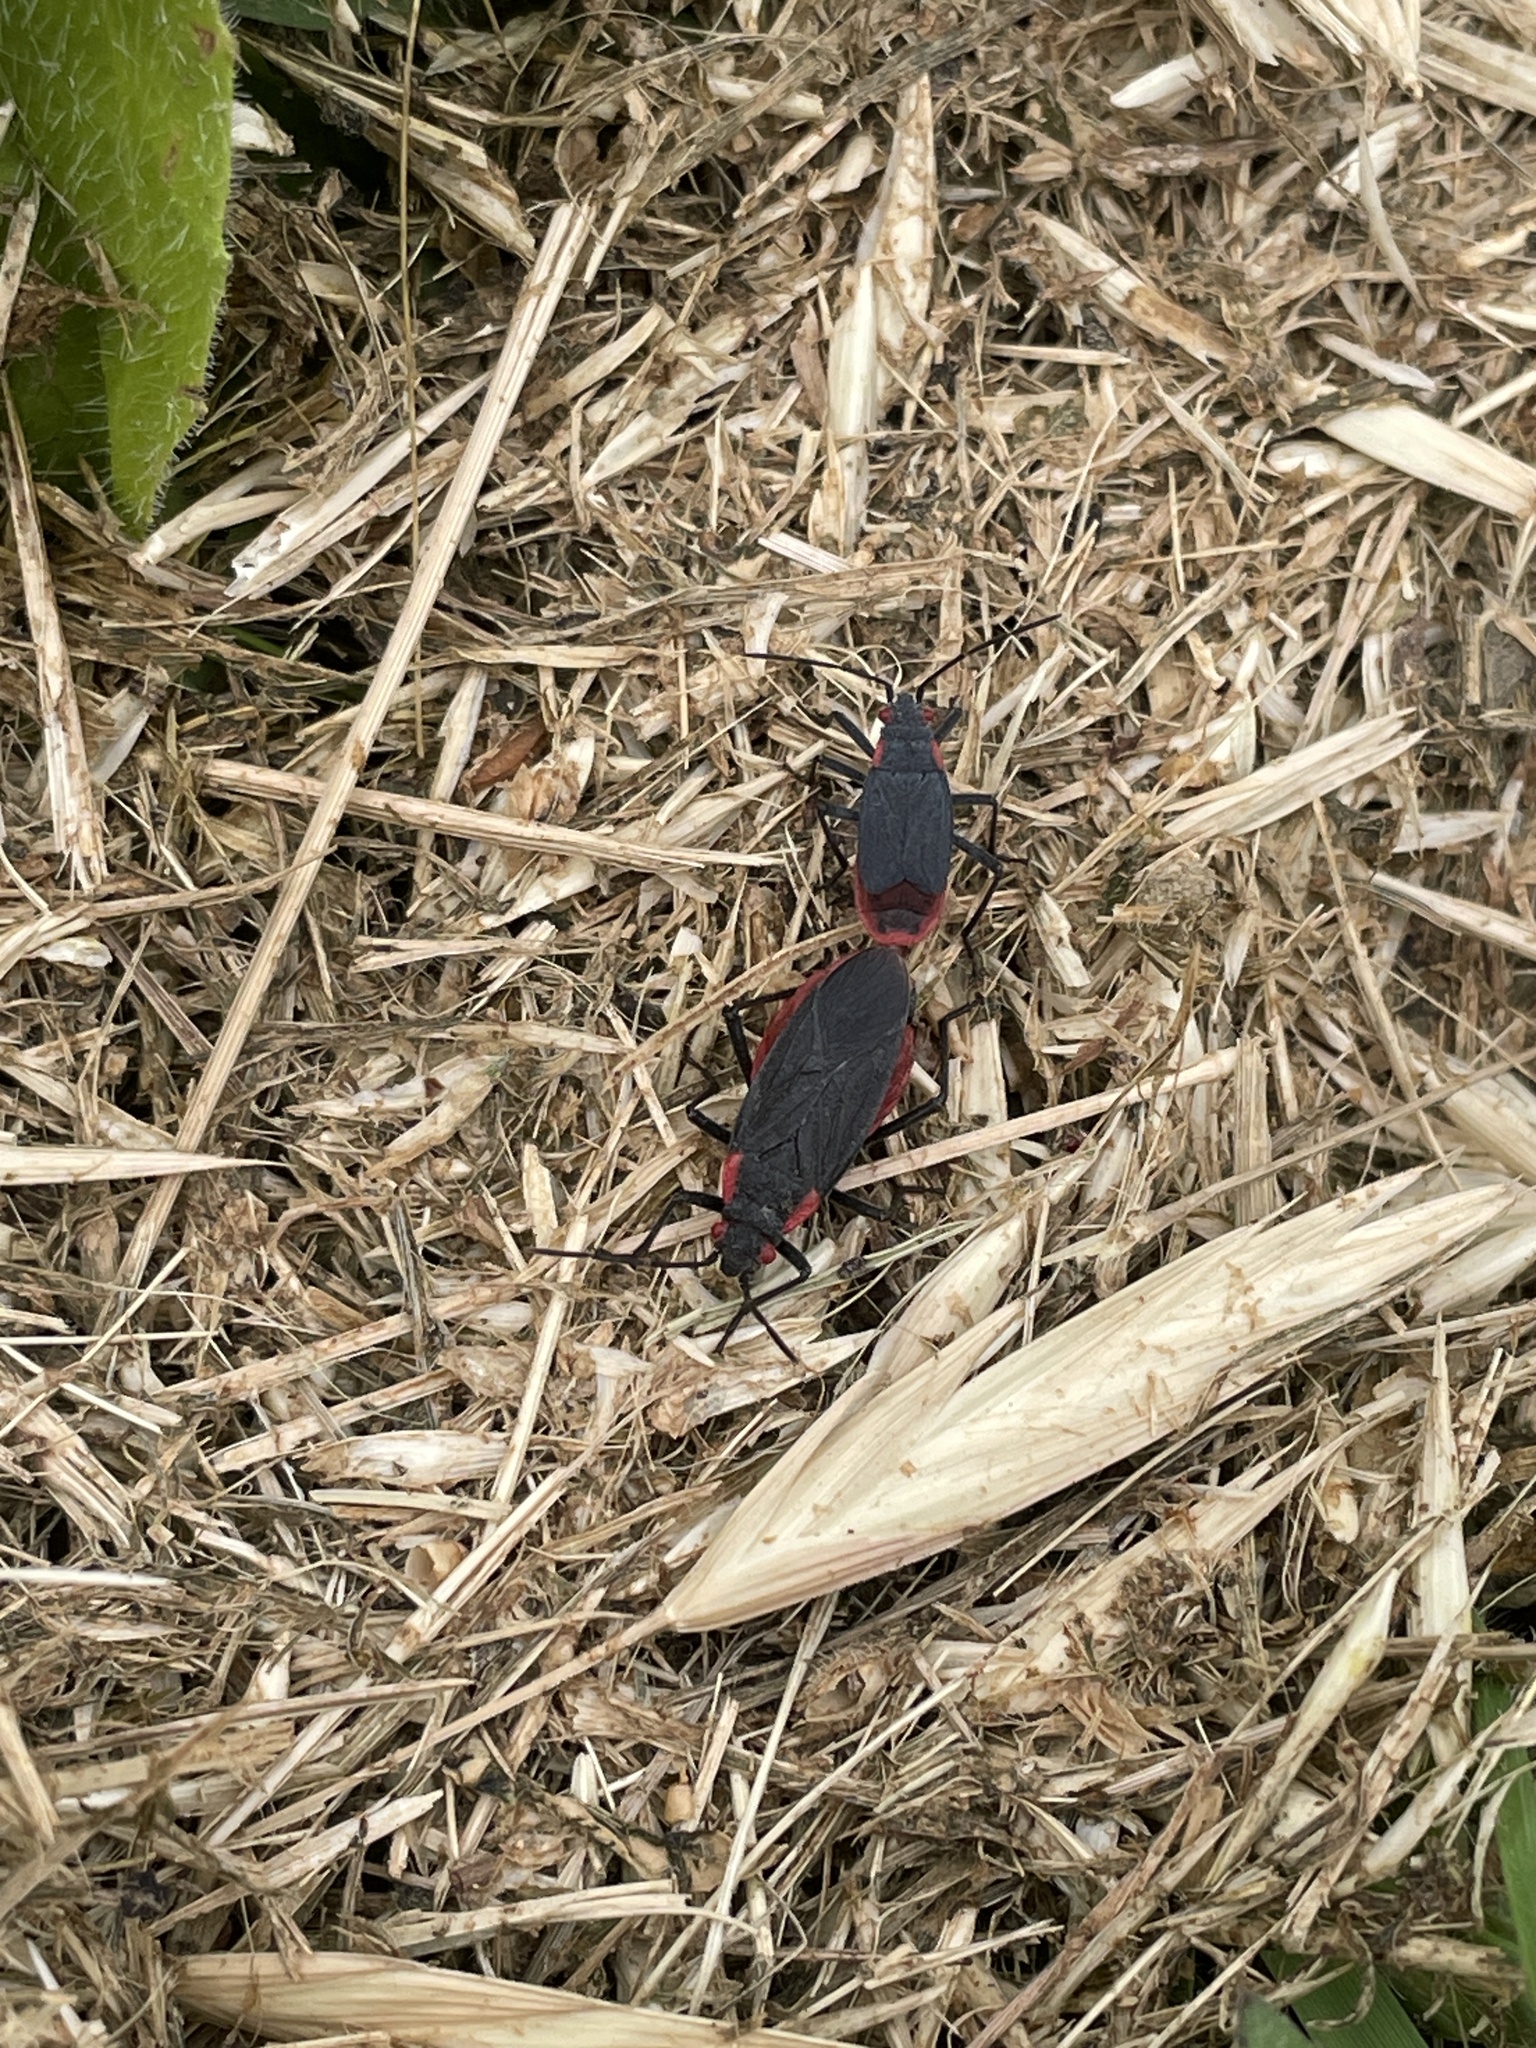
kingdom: Animalia
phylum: Arthropoda
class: Insecta
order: Hemiptera
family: Rhopalidae
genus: Jadera
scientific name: Jadera haematoloma
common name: Red-shouldered bug
